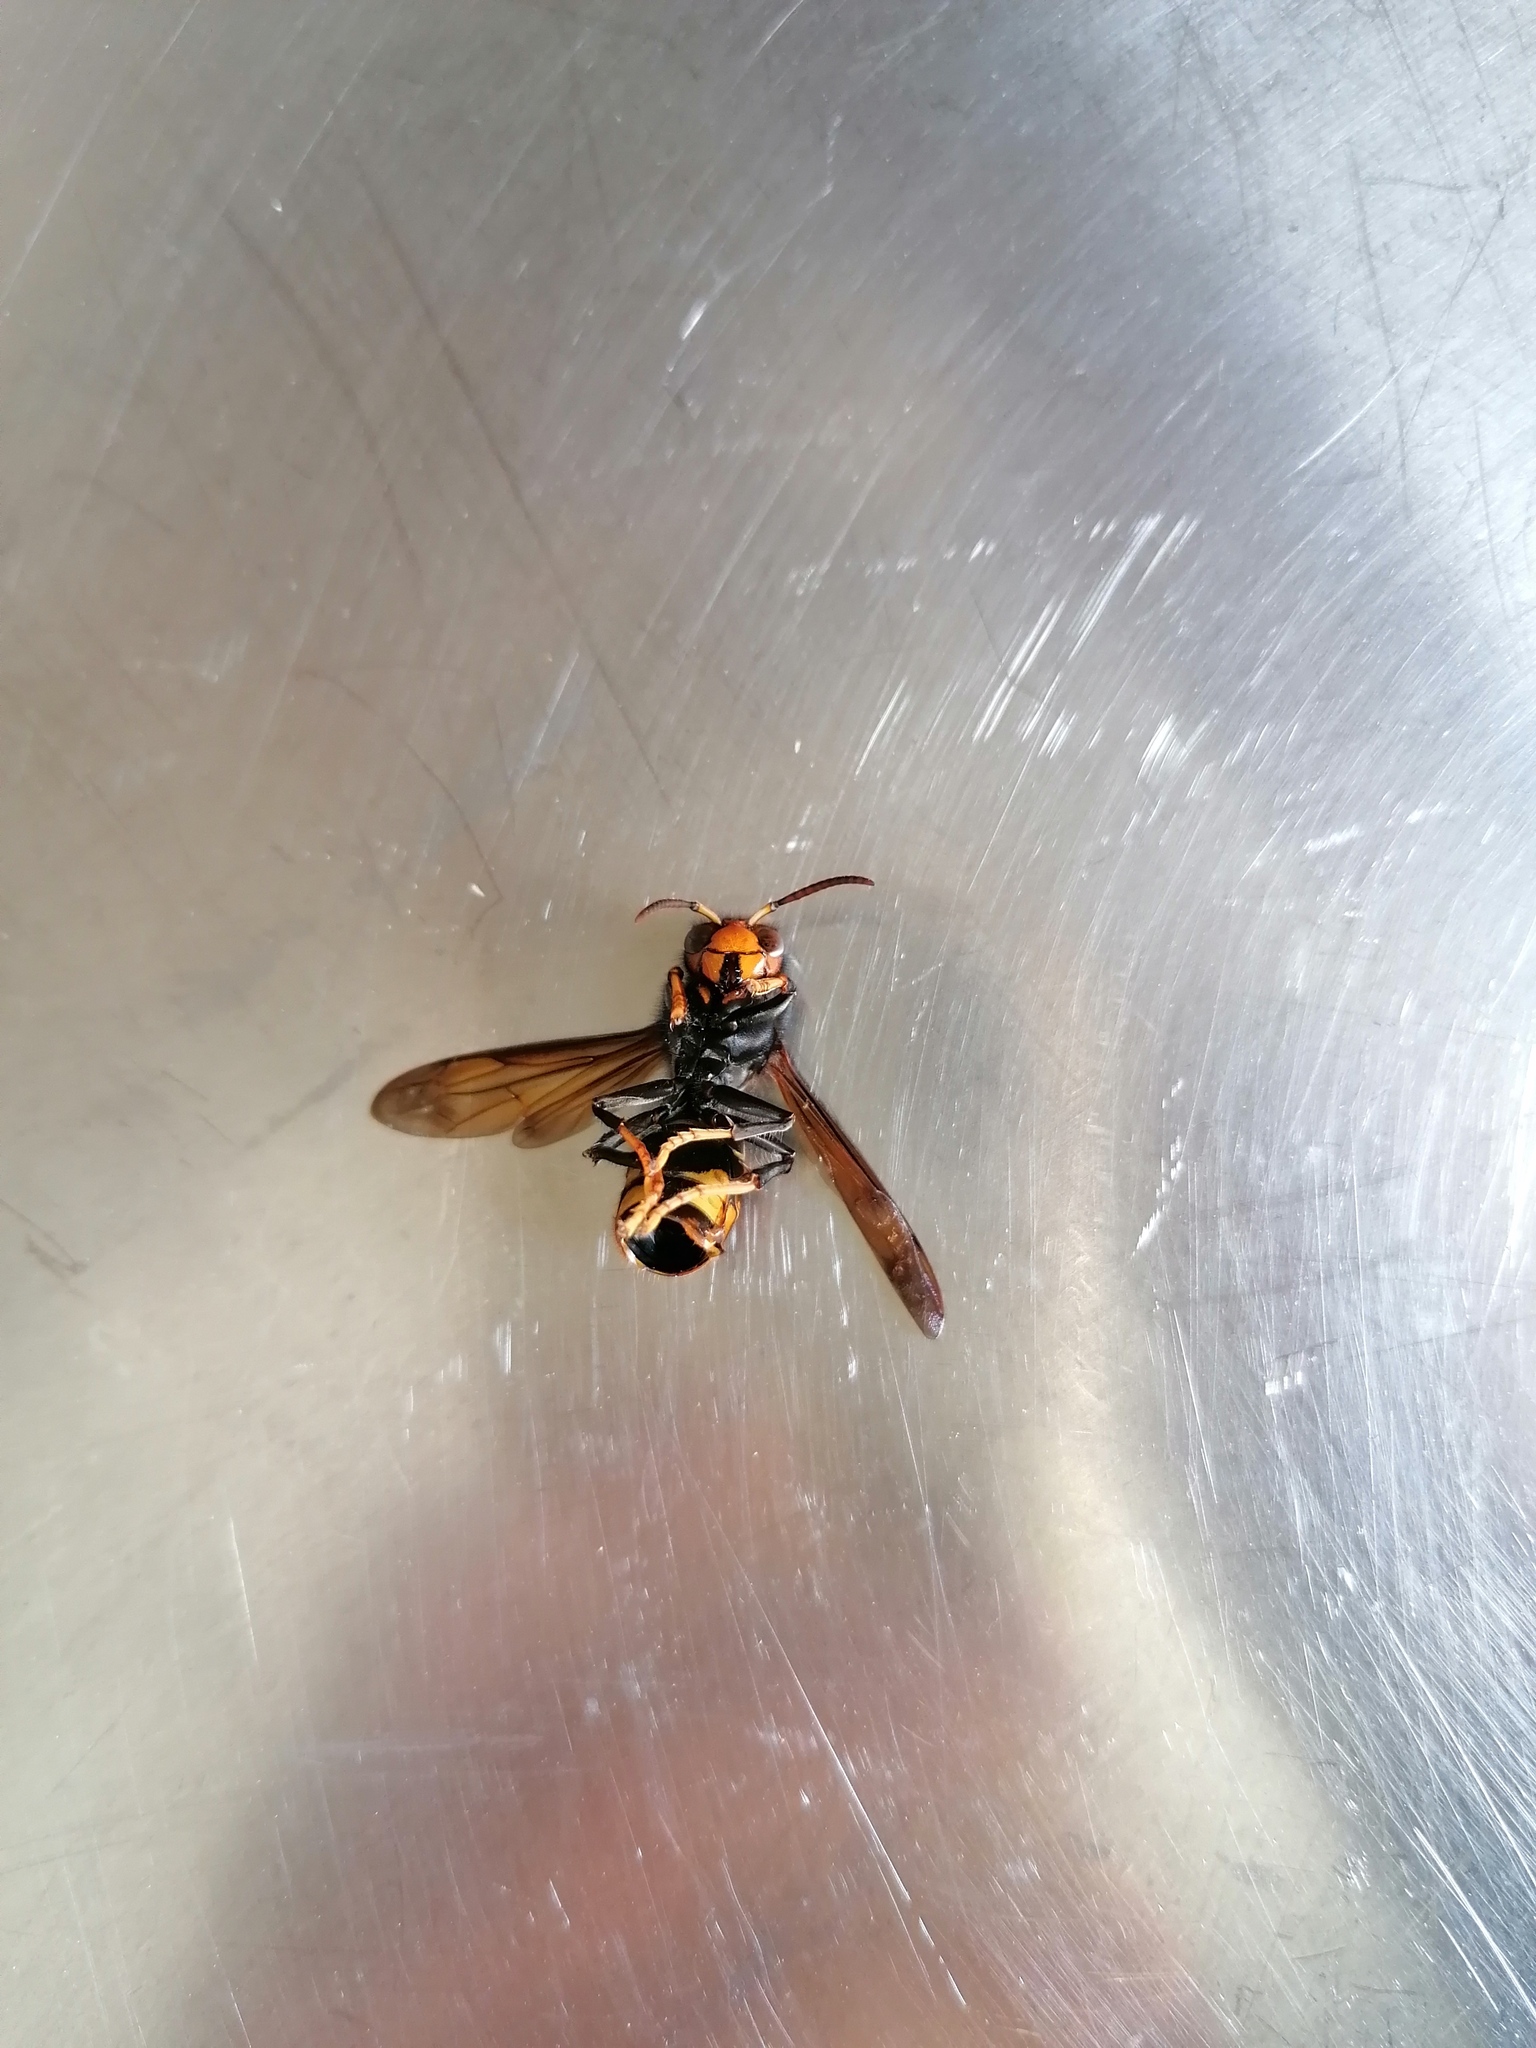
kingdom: Animalia
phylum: Arthropoda
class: Insecta
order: Hymenoptera
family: Vespidae
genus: Vespa
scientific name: Vespa velutina
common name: Asian hornet
